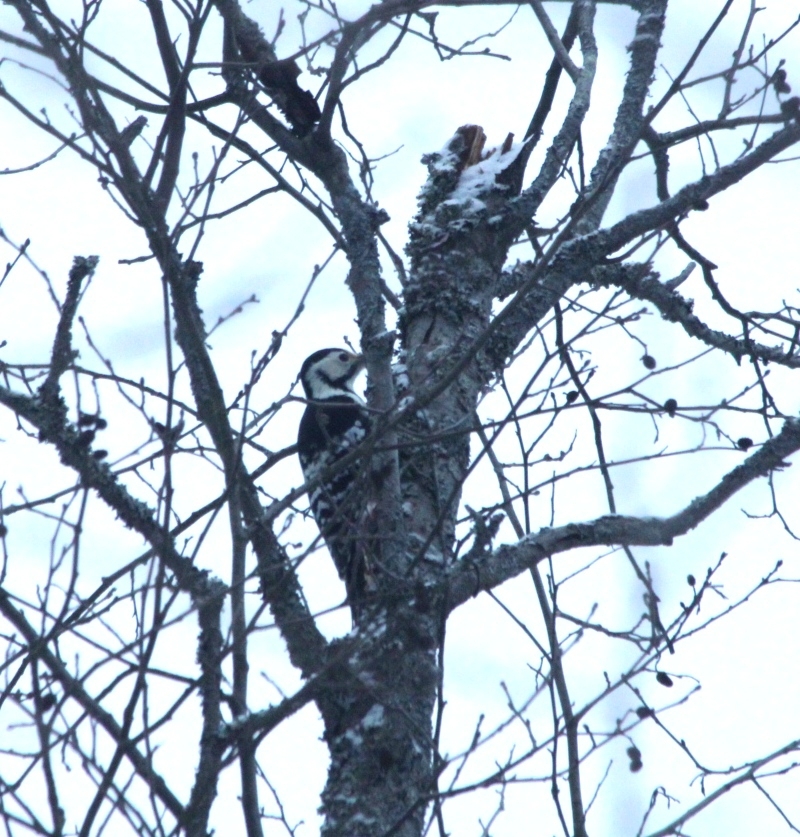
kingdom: Animalia
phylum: Chordata
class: Aves
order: Piciformes
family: Picidae
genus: Dendrocopos
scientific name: Dendrocopos leucotos
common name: White-backed woodpecker
